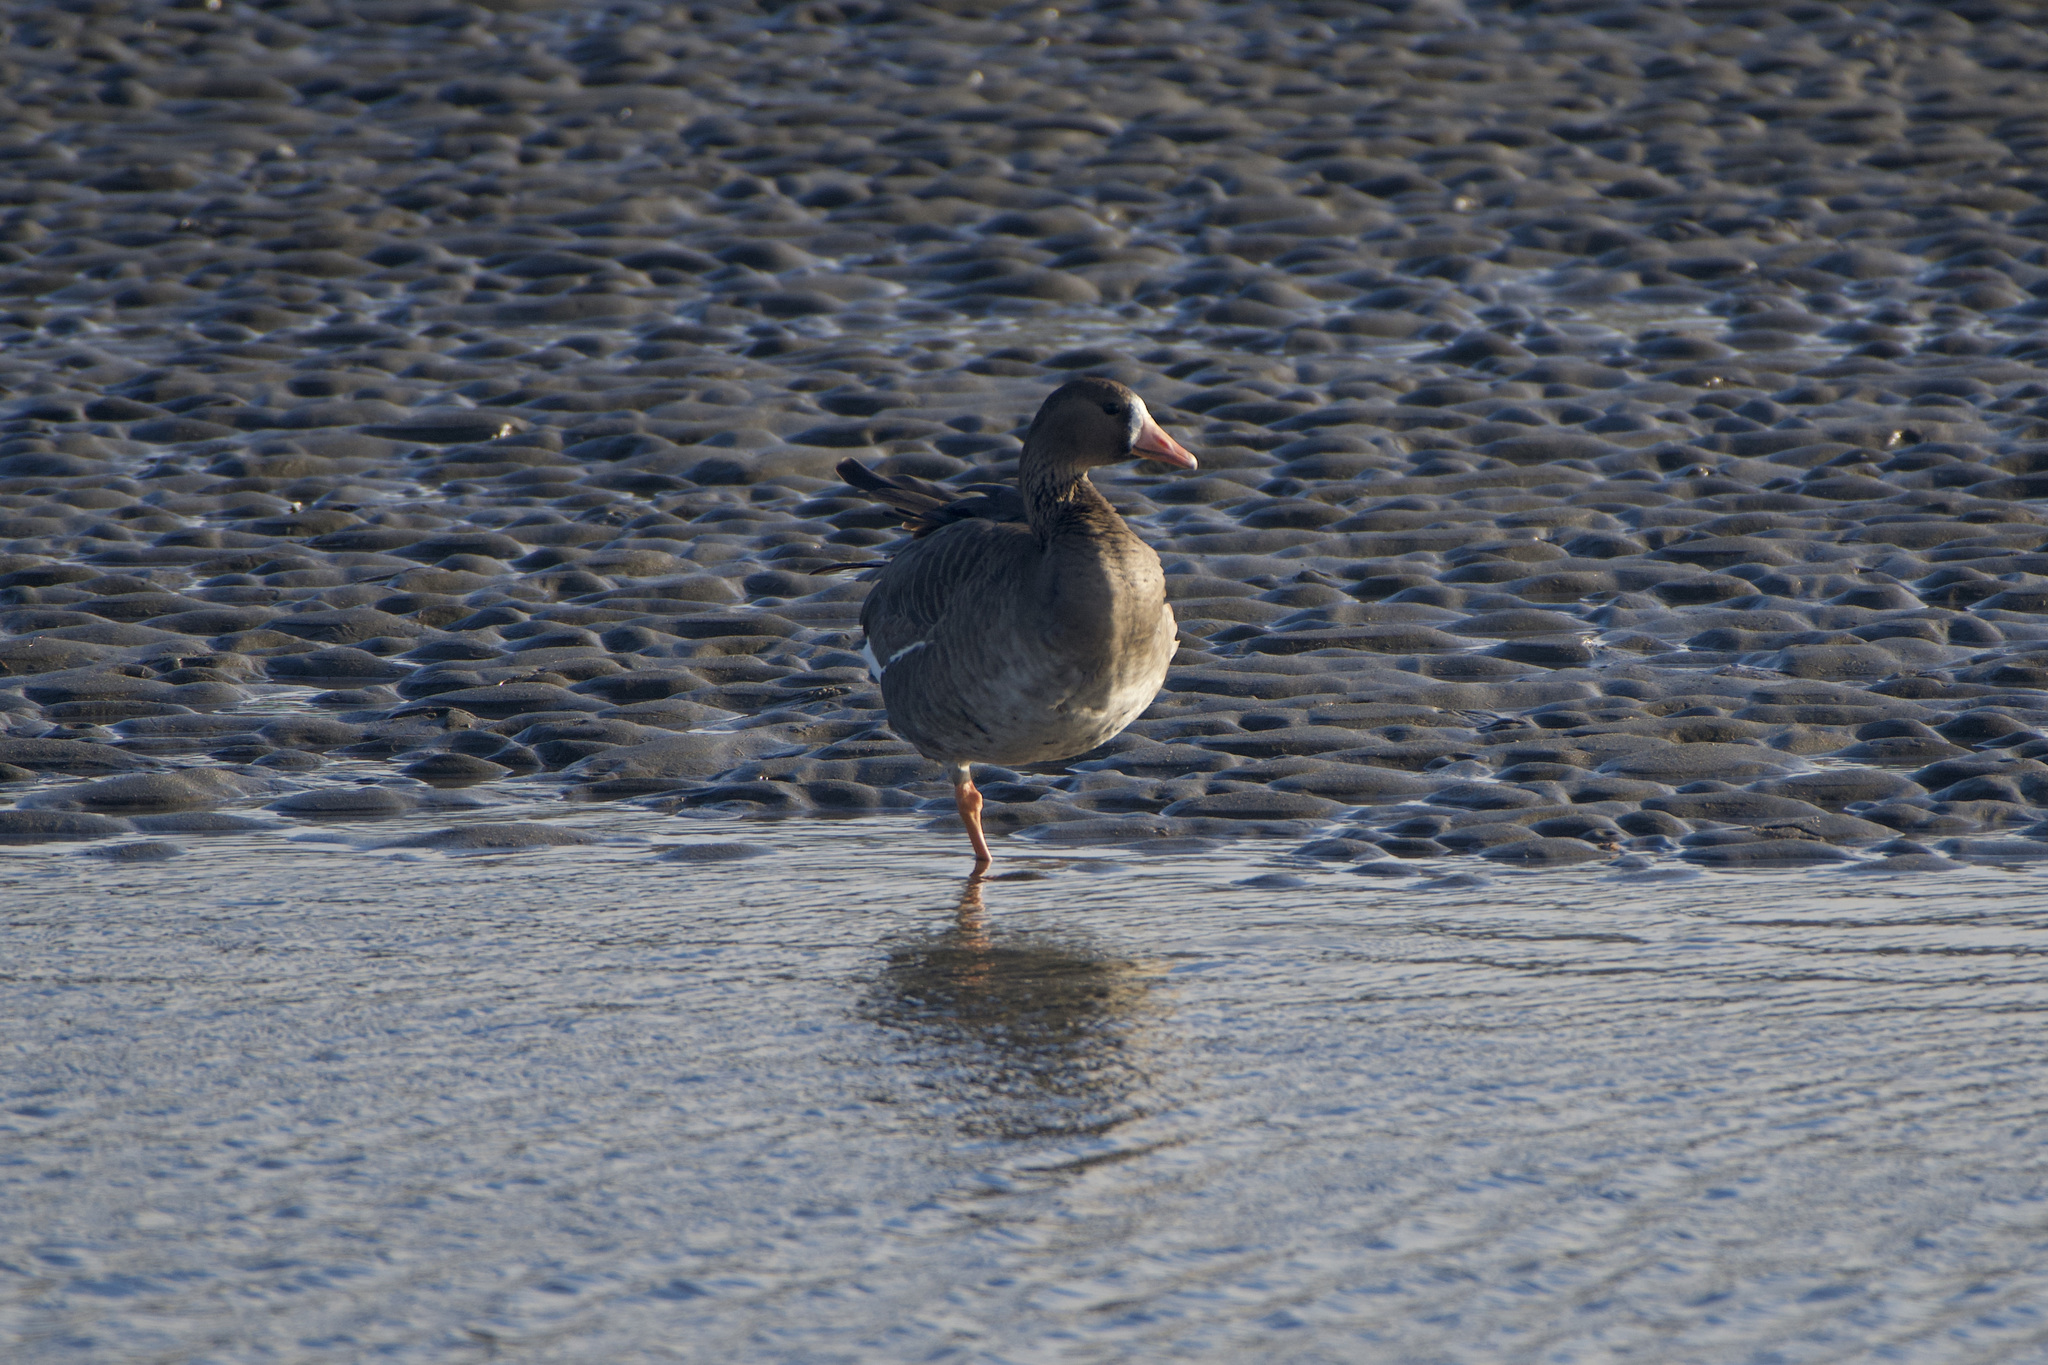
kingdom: Animalia
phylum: Chordata
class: Aves
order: Anseriformes
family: Anatidae
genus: Anser
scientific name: Anser albifrons
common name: Greater white-fronted goose
